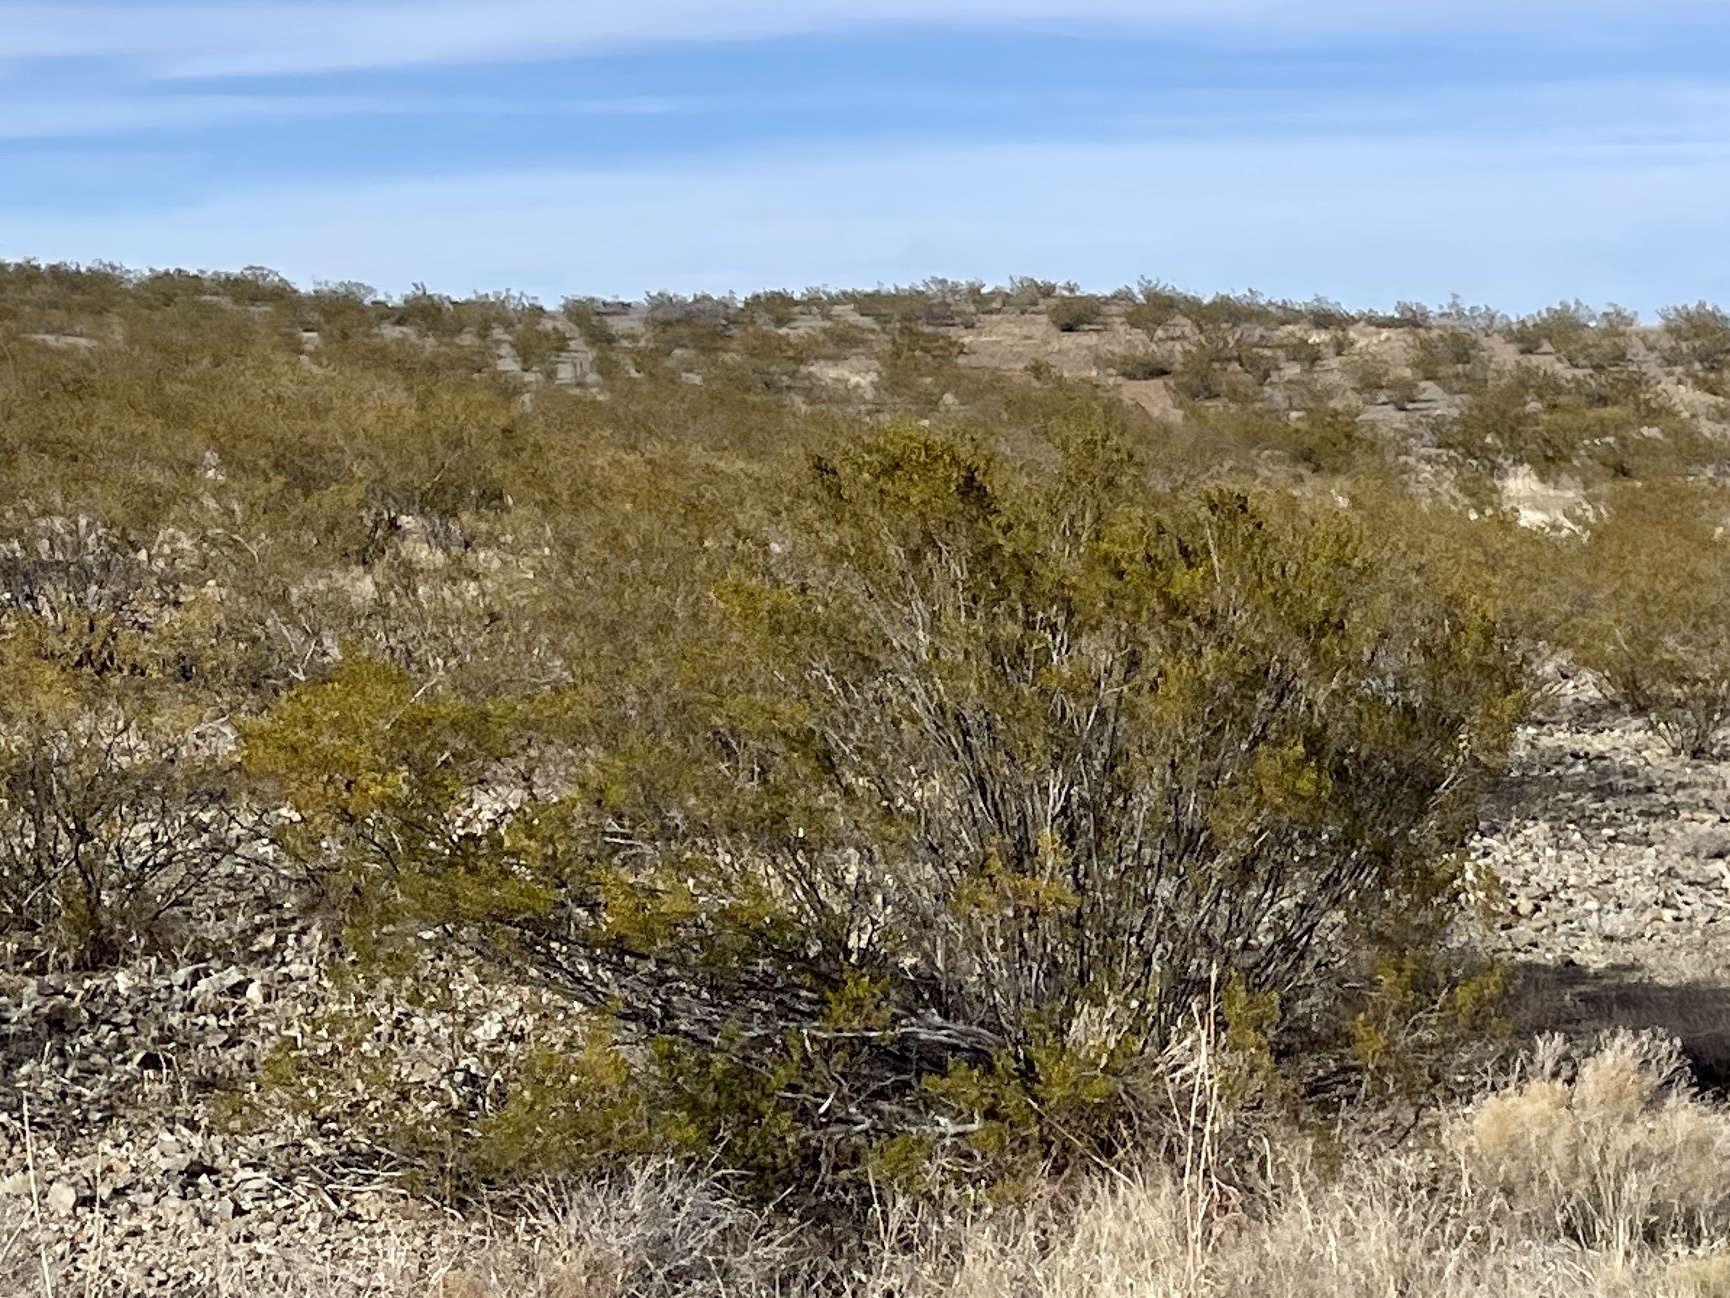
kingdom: Plantae
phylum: Tracheophyta
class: Magnoliopsida
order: Zygophyllales
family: Zygophyllaceae
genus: Larrea
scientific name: Larrea tridentata
